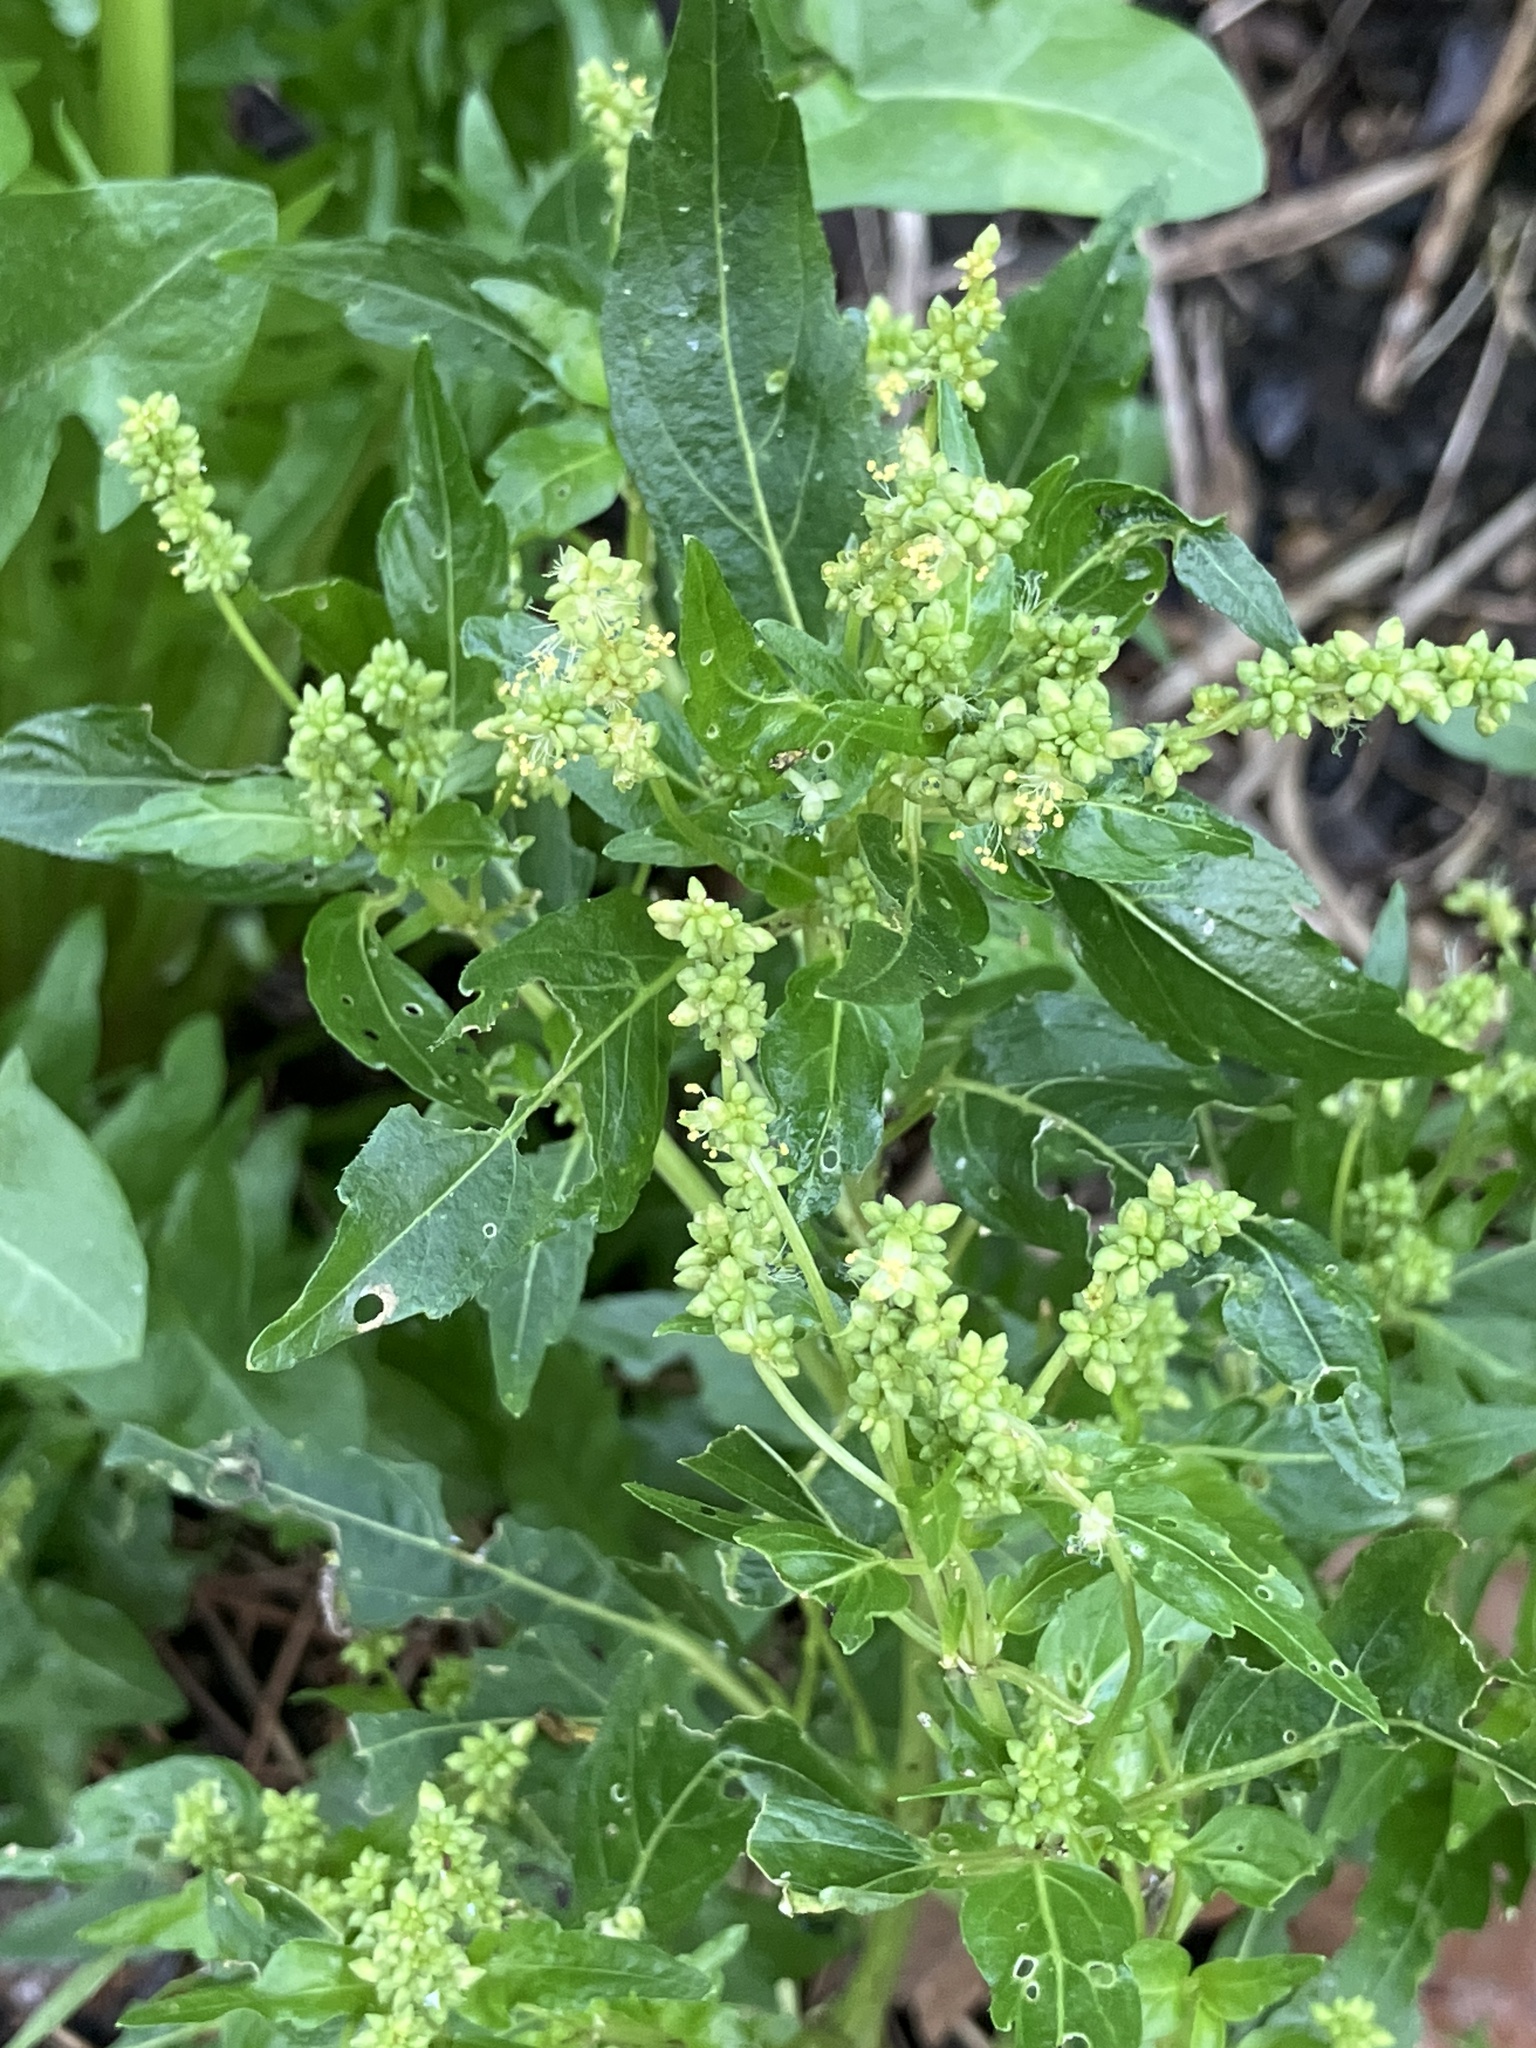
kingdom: Plantae
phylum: Tracheophyta
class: Magnoliopsida
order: Malpighiales
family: Euphorbiaceae
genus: Mercurialis
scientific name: Mercurialis annua
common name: Annual mercury
